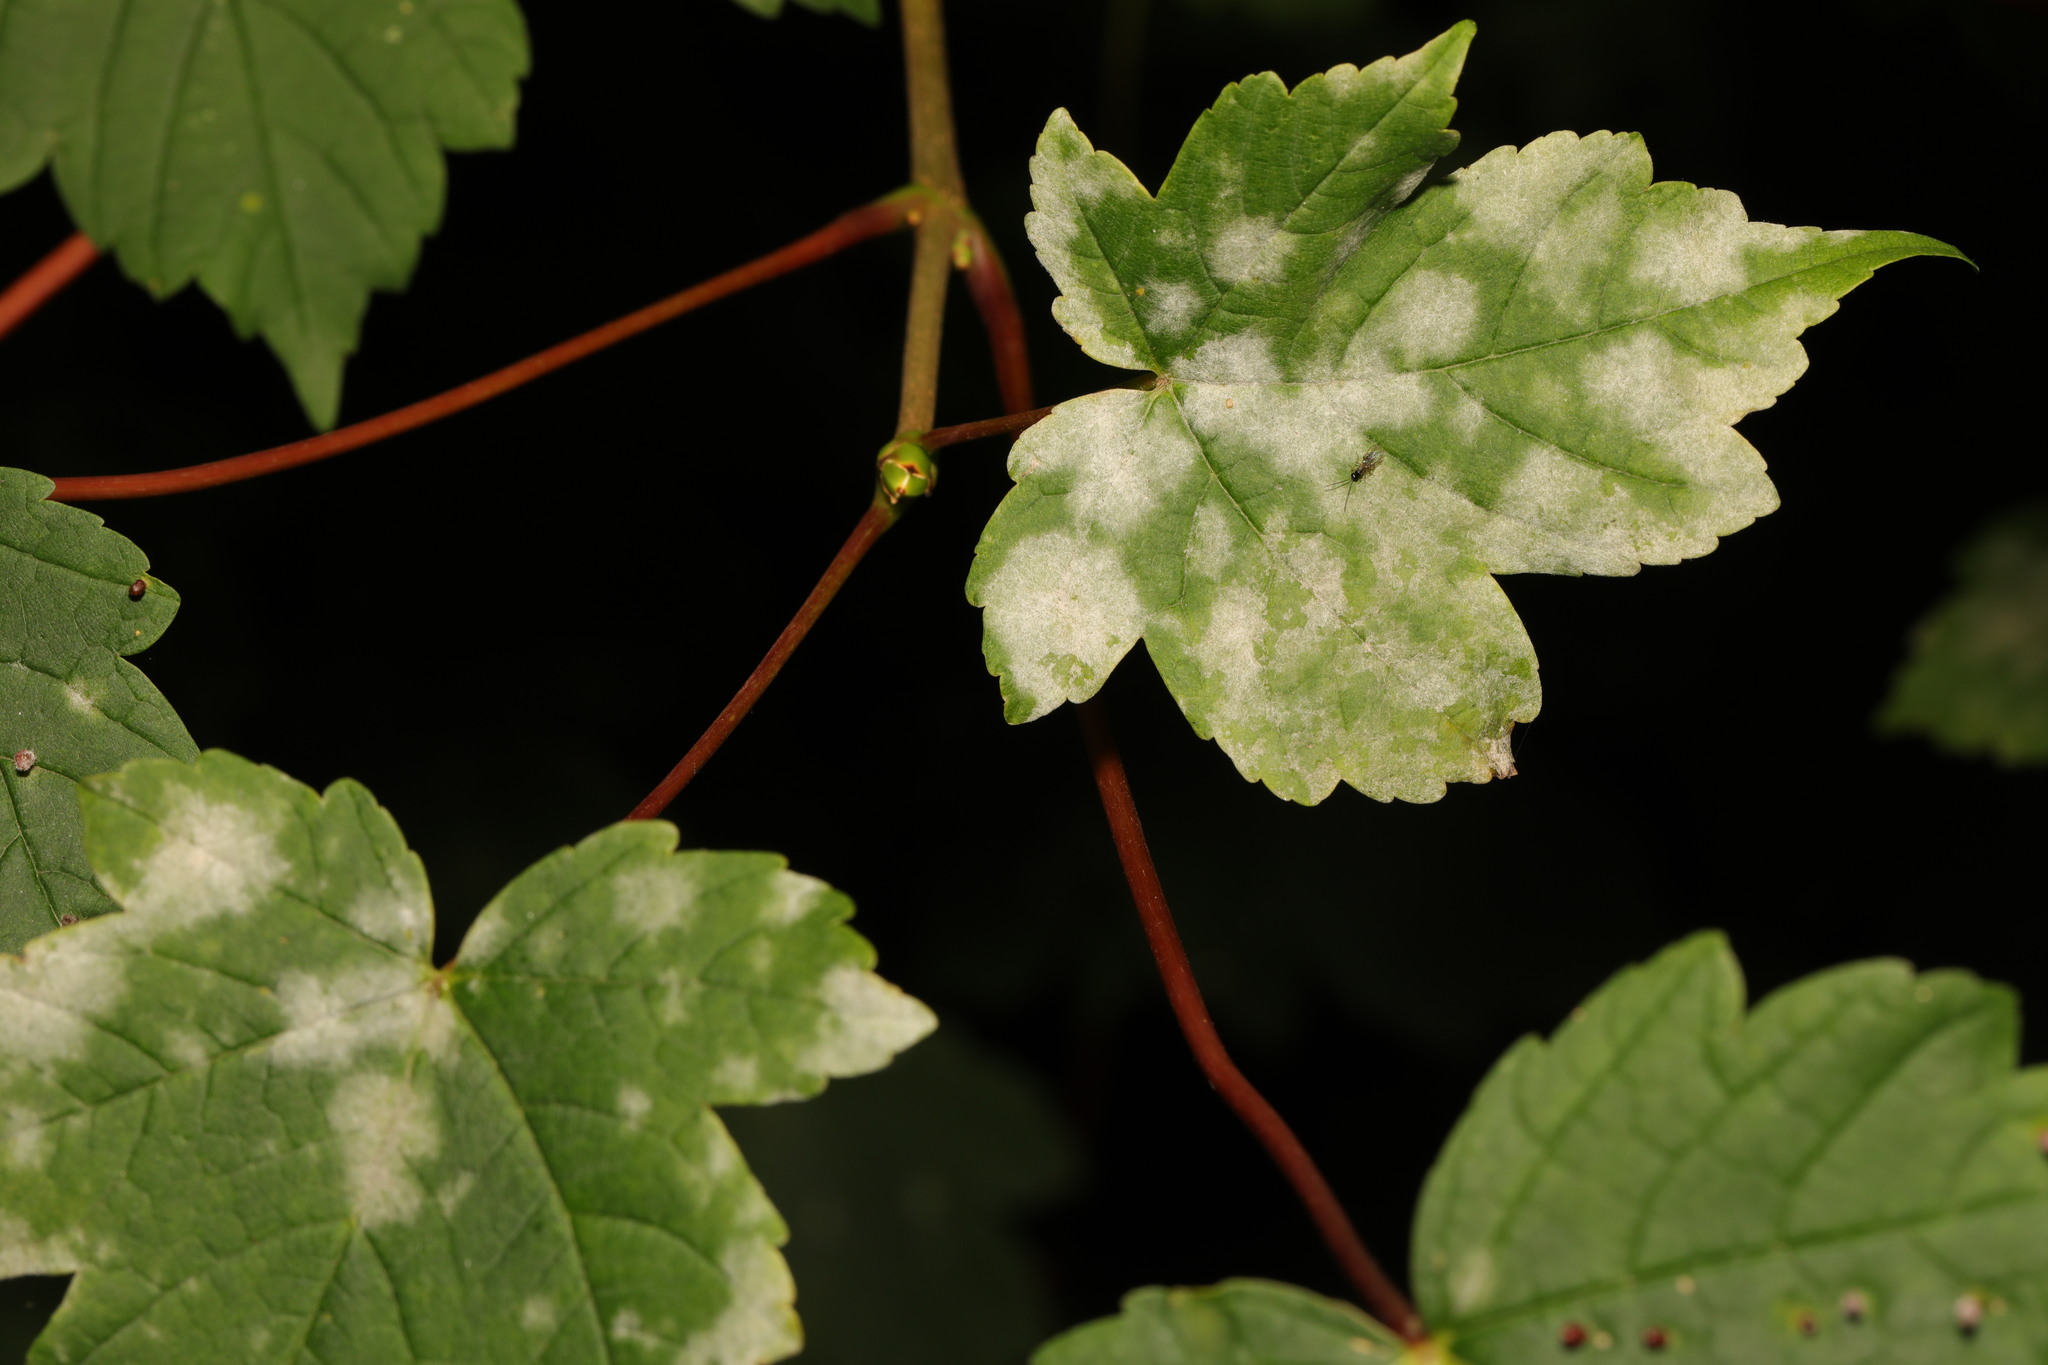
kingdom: Fungi
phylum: Ascomycota
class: Leotiomycetes
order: Helotiales
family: Erysiphaceae
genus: Sawadaea
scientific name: Sawadaea bicornis
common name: Maple mildew
